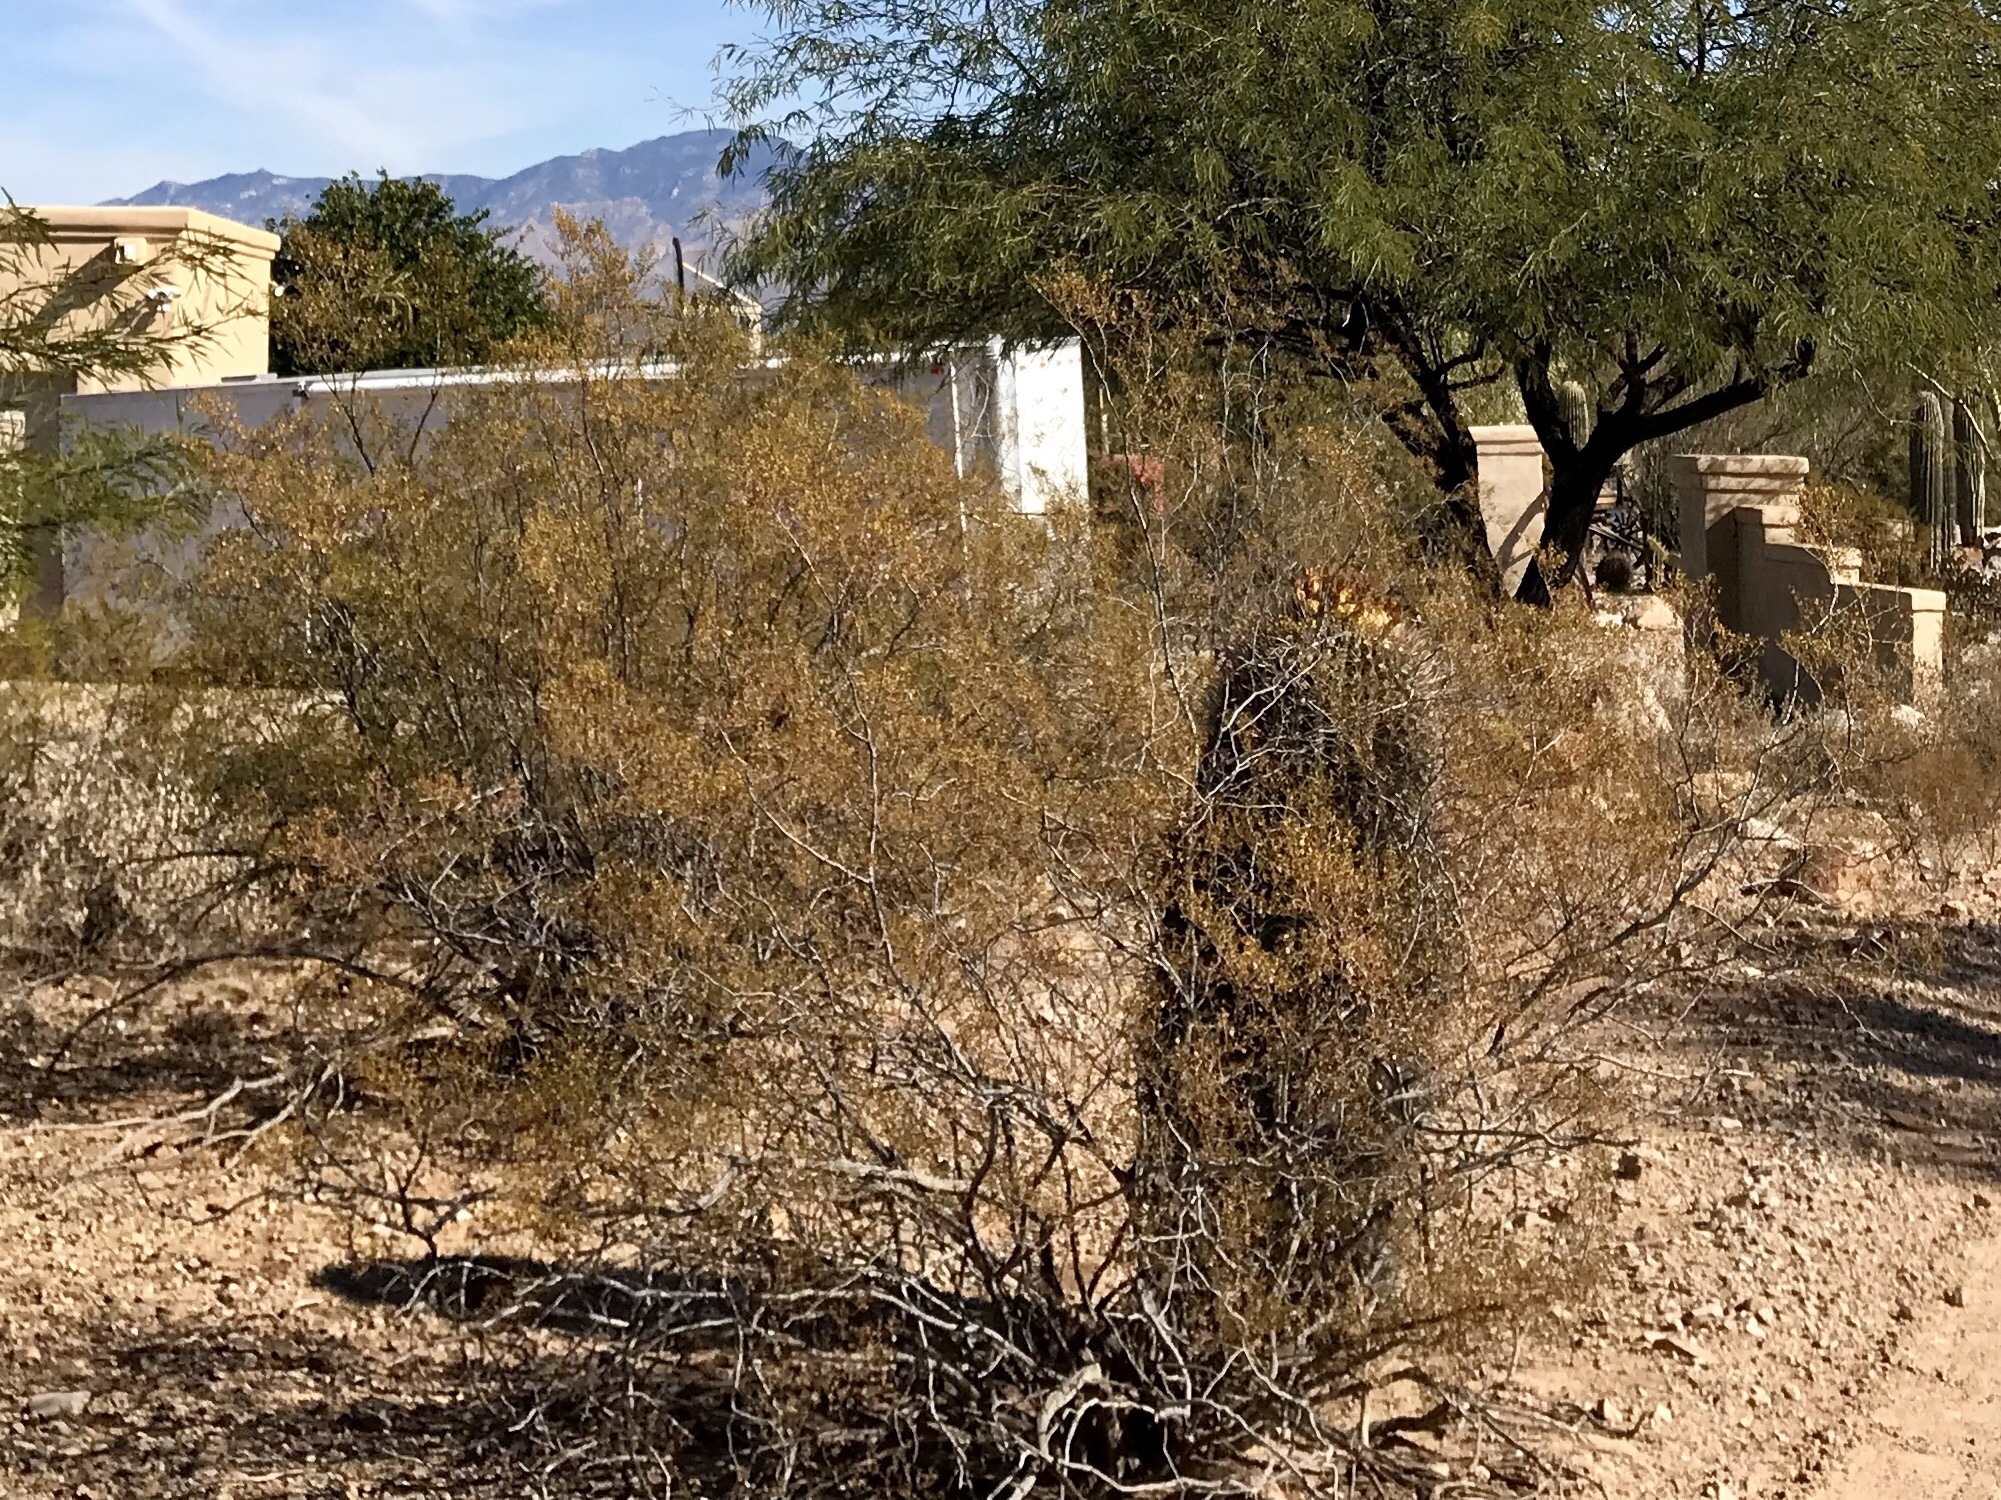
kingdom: Plantae
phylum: Tracheophyta
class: Magnoliopsida
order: Zygophyllales
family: Zygophyllaceae
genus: Larrea
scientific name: Larrea tridentata
